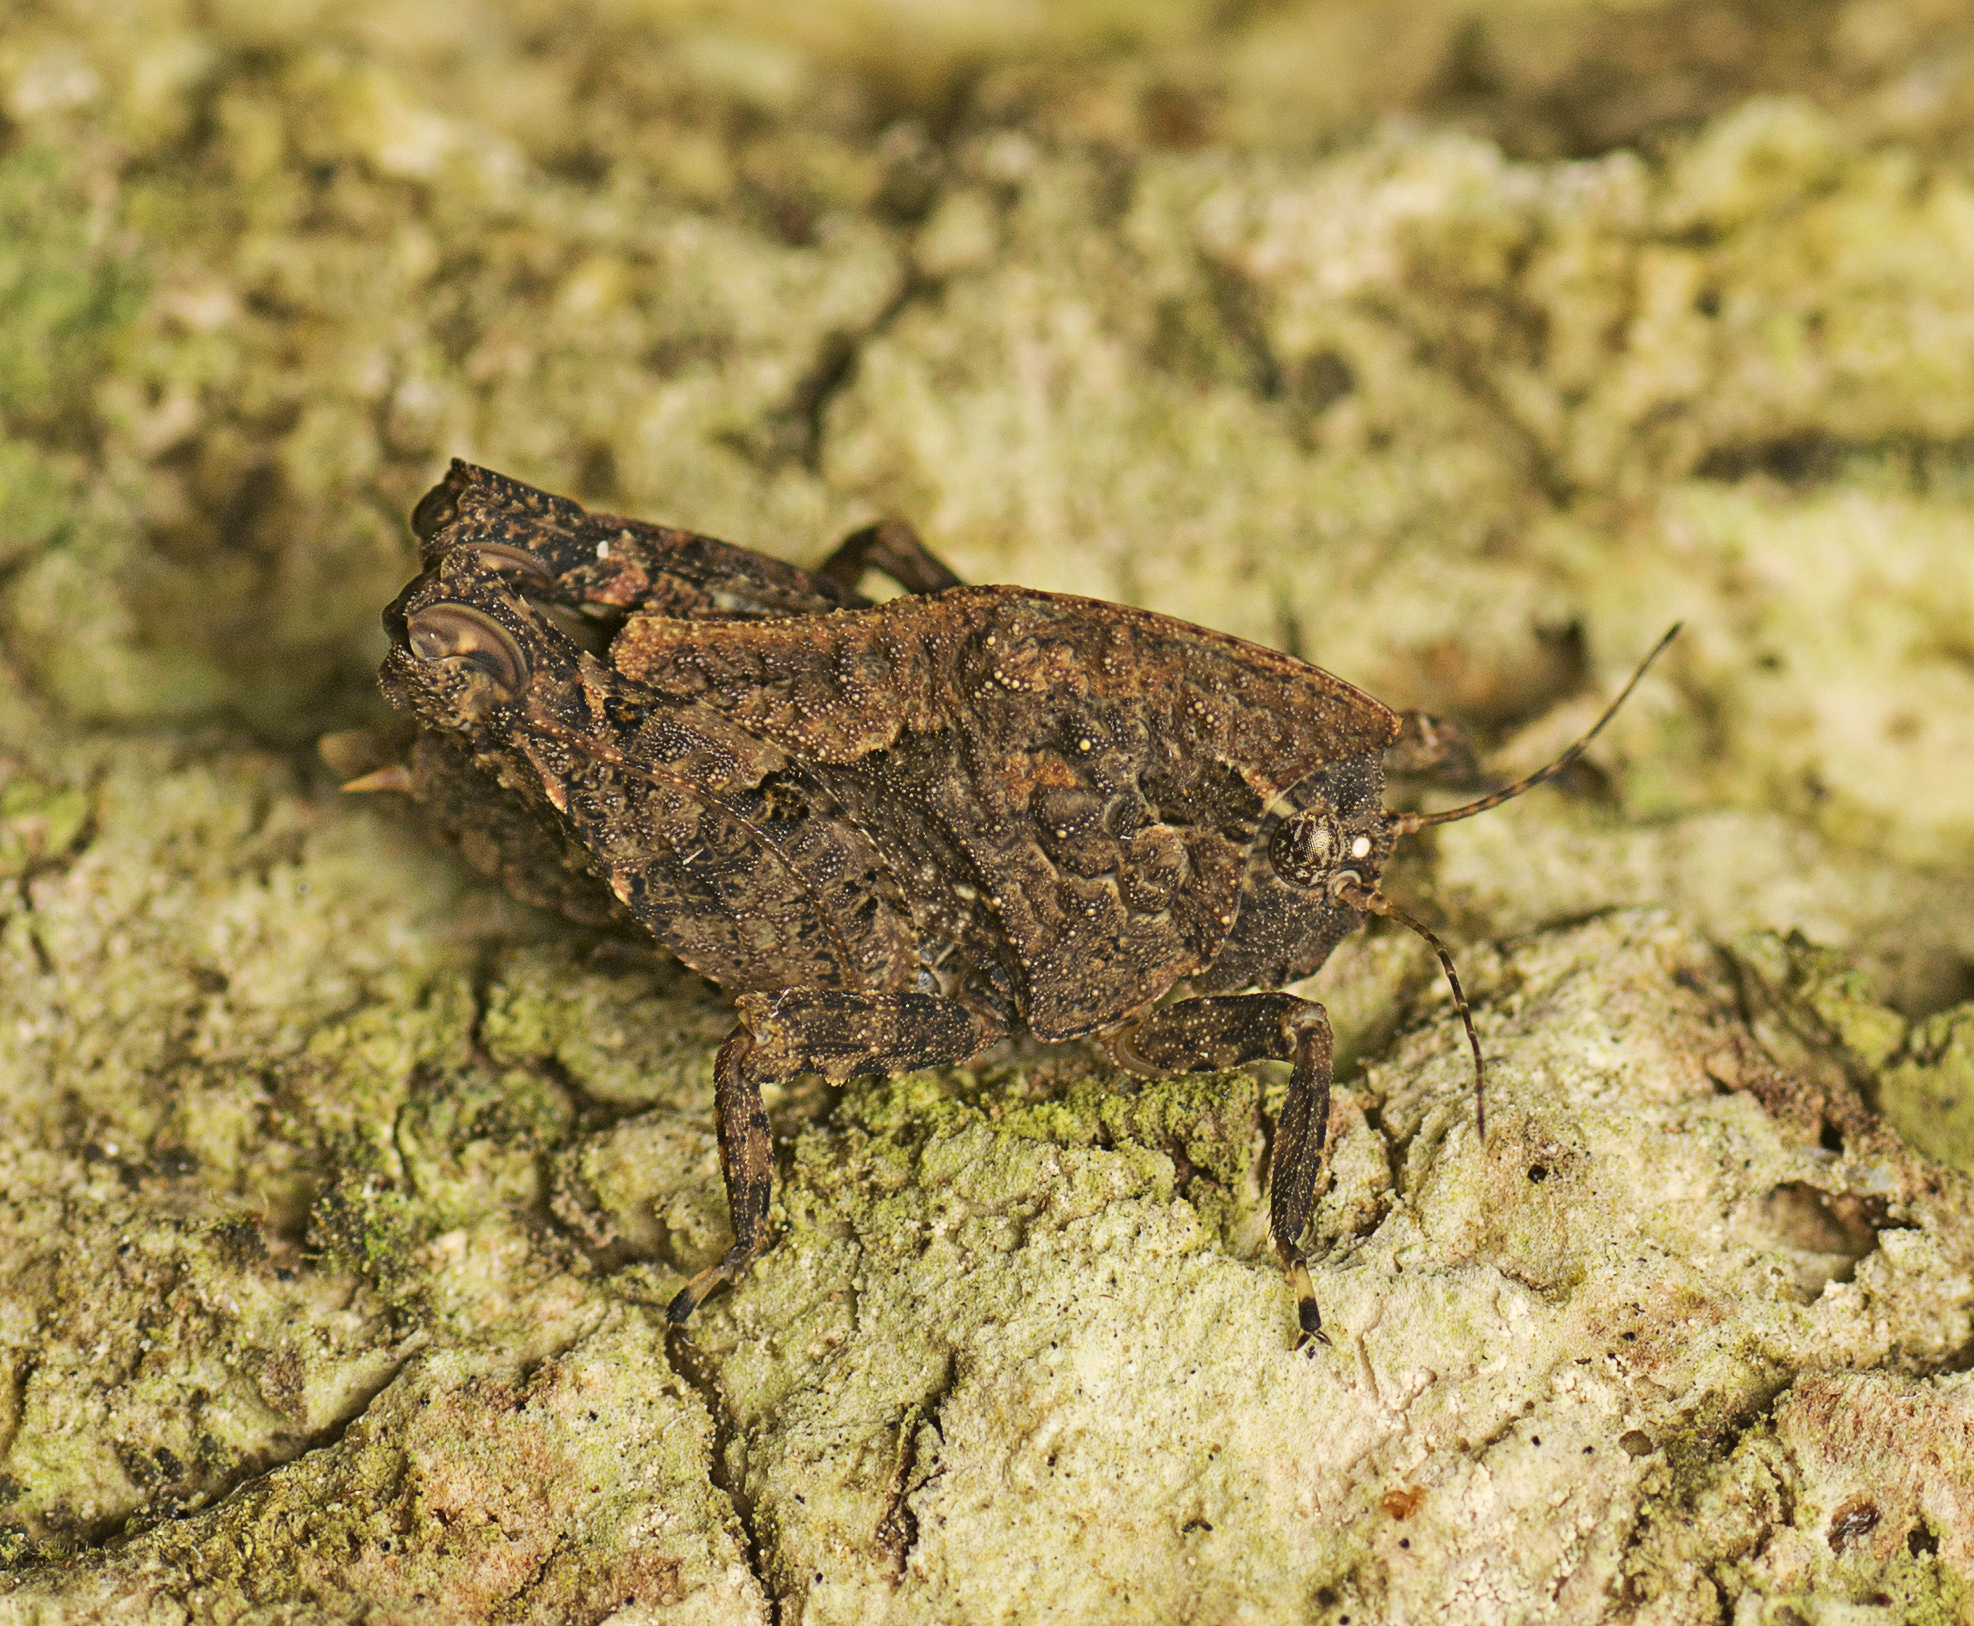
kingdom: Animalia
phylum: Arthropoda
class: Insecta
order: Orthoptera
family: Tetrigidae
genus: Vingselina
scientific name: Vingselina crassa
